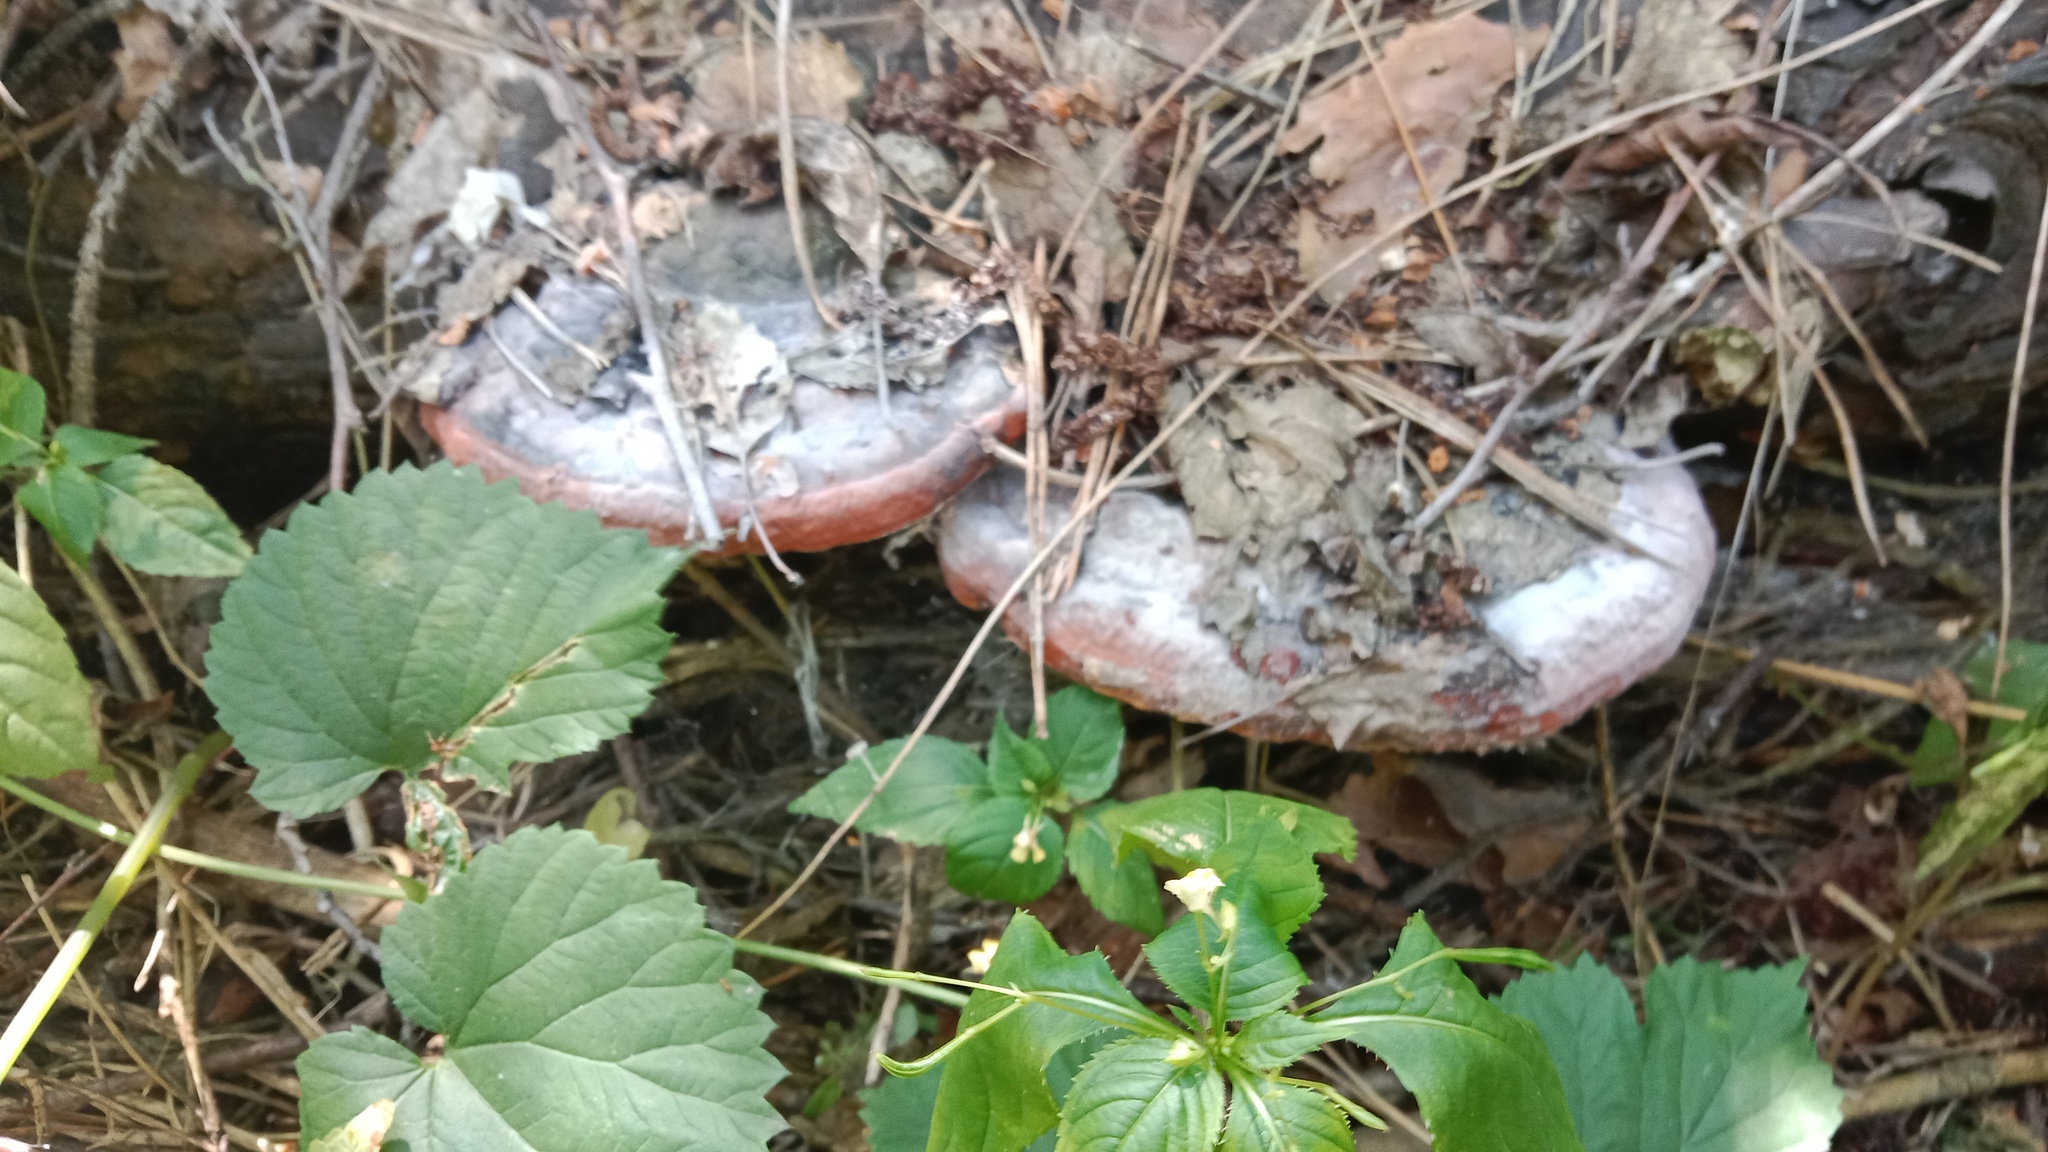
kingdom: Fungi
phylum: Basidiomycota
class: Agaricomycetes
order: Polyporales
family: Fomitopsidaceae
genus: Fomitopsis
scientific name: Fomitopsis pinicola
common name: Red-belted bracket
